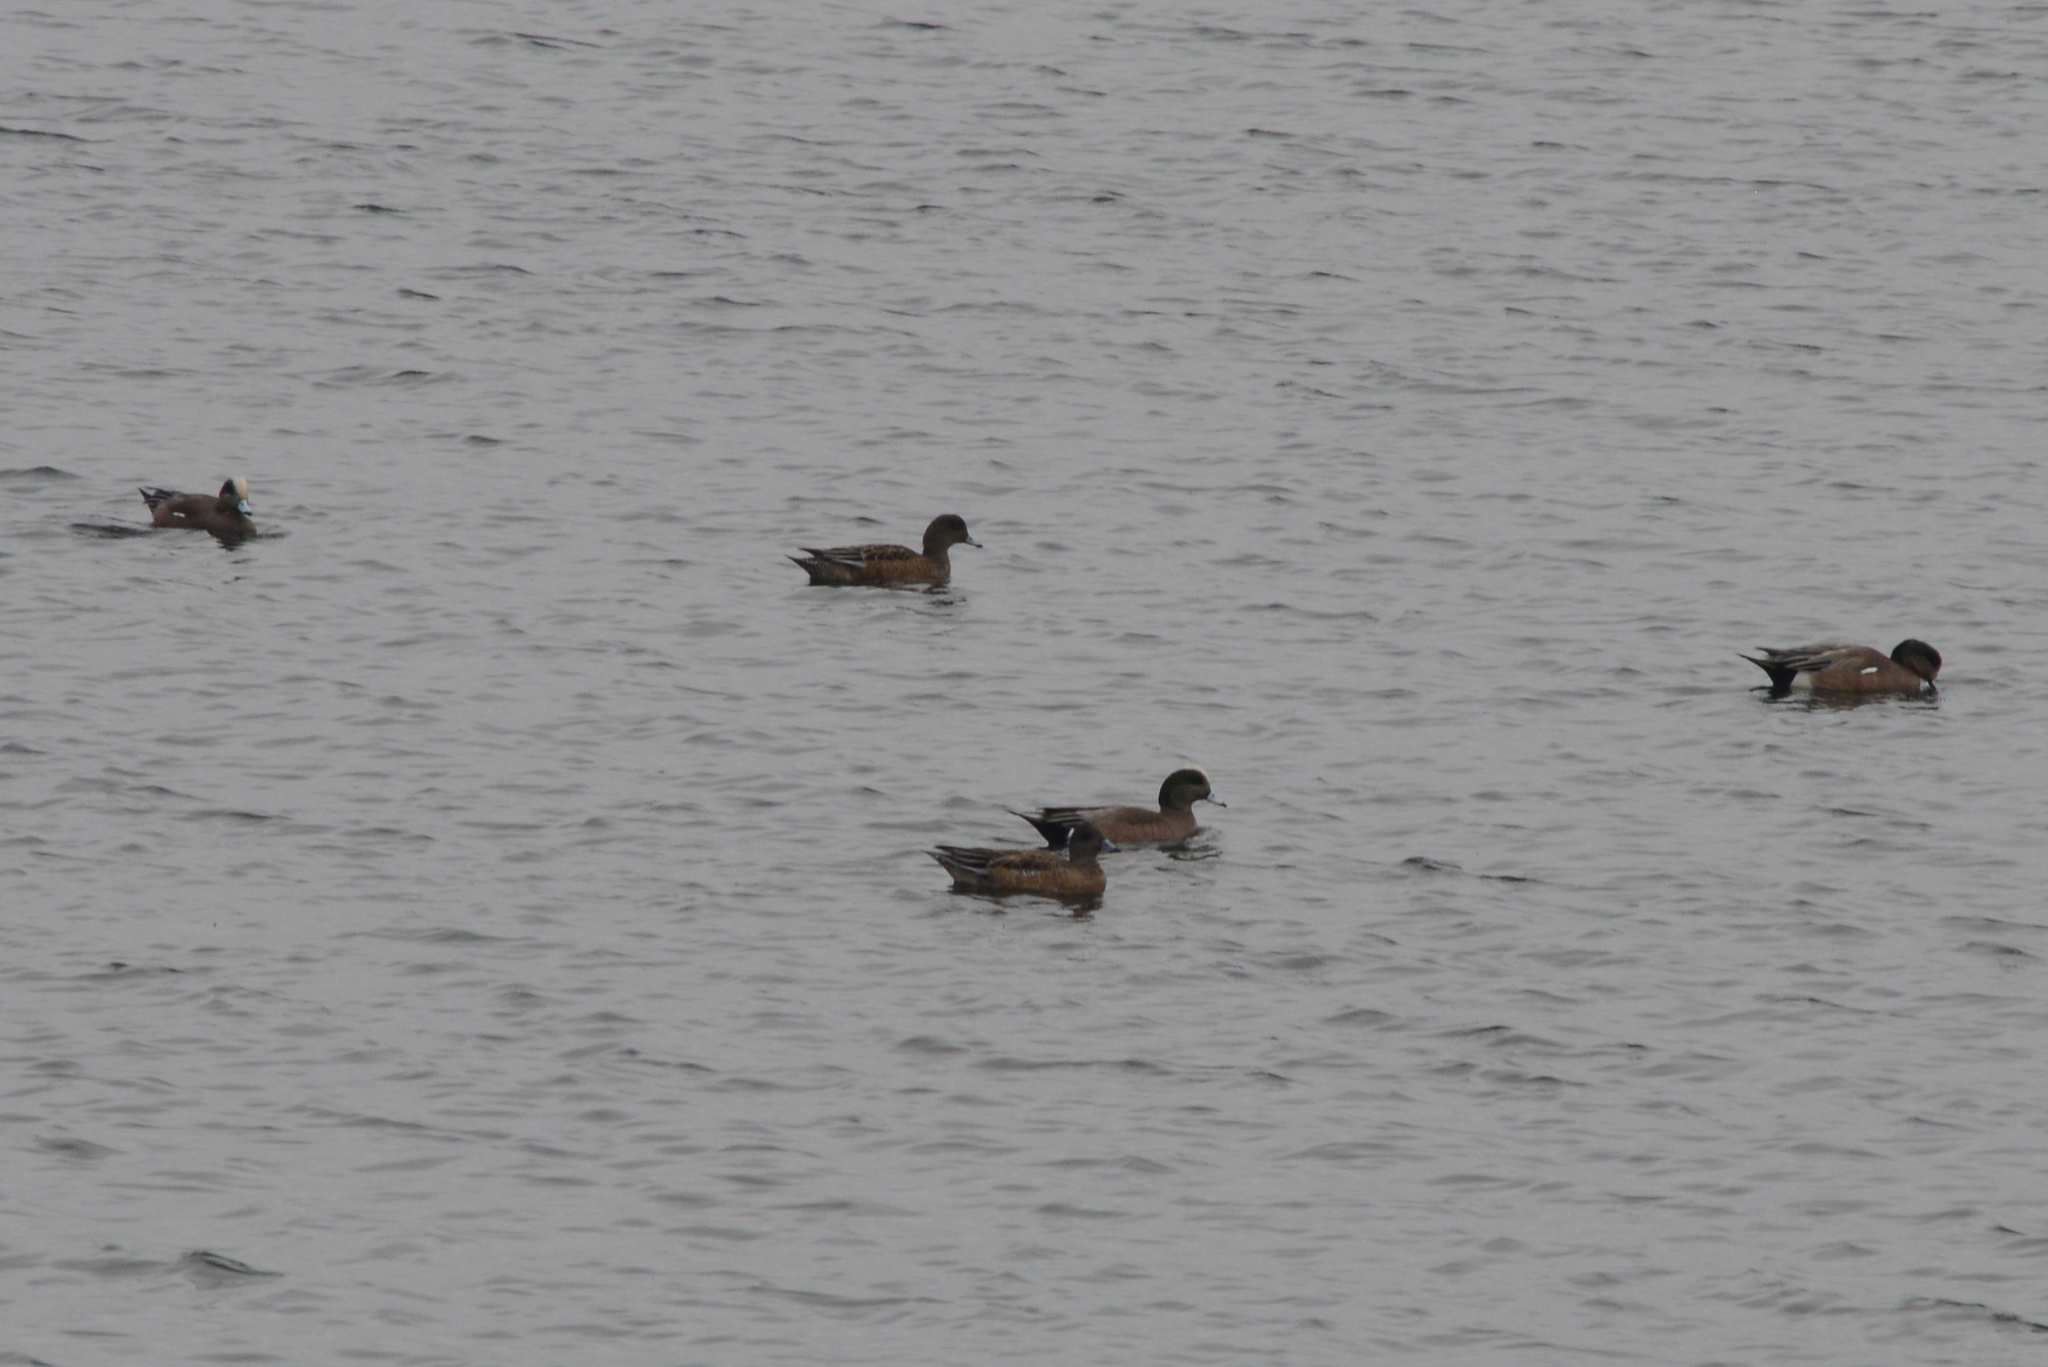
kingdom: Animalia
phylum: Chordata
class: Aves
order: Anseriformes
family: Anatidae
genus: Mareca
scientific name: Mareca americana
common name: American wigeon
